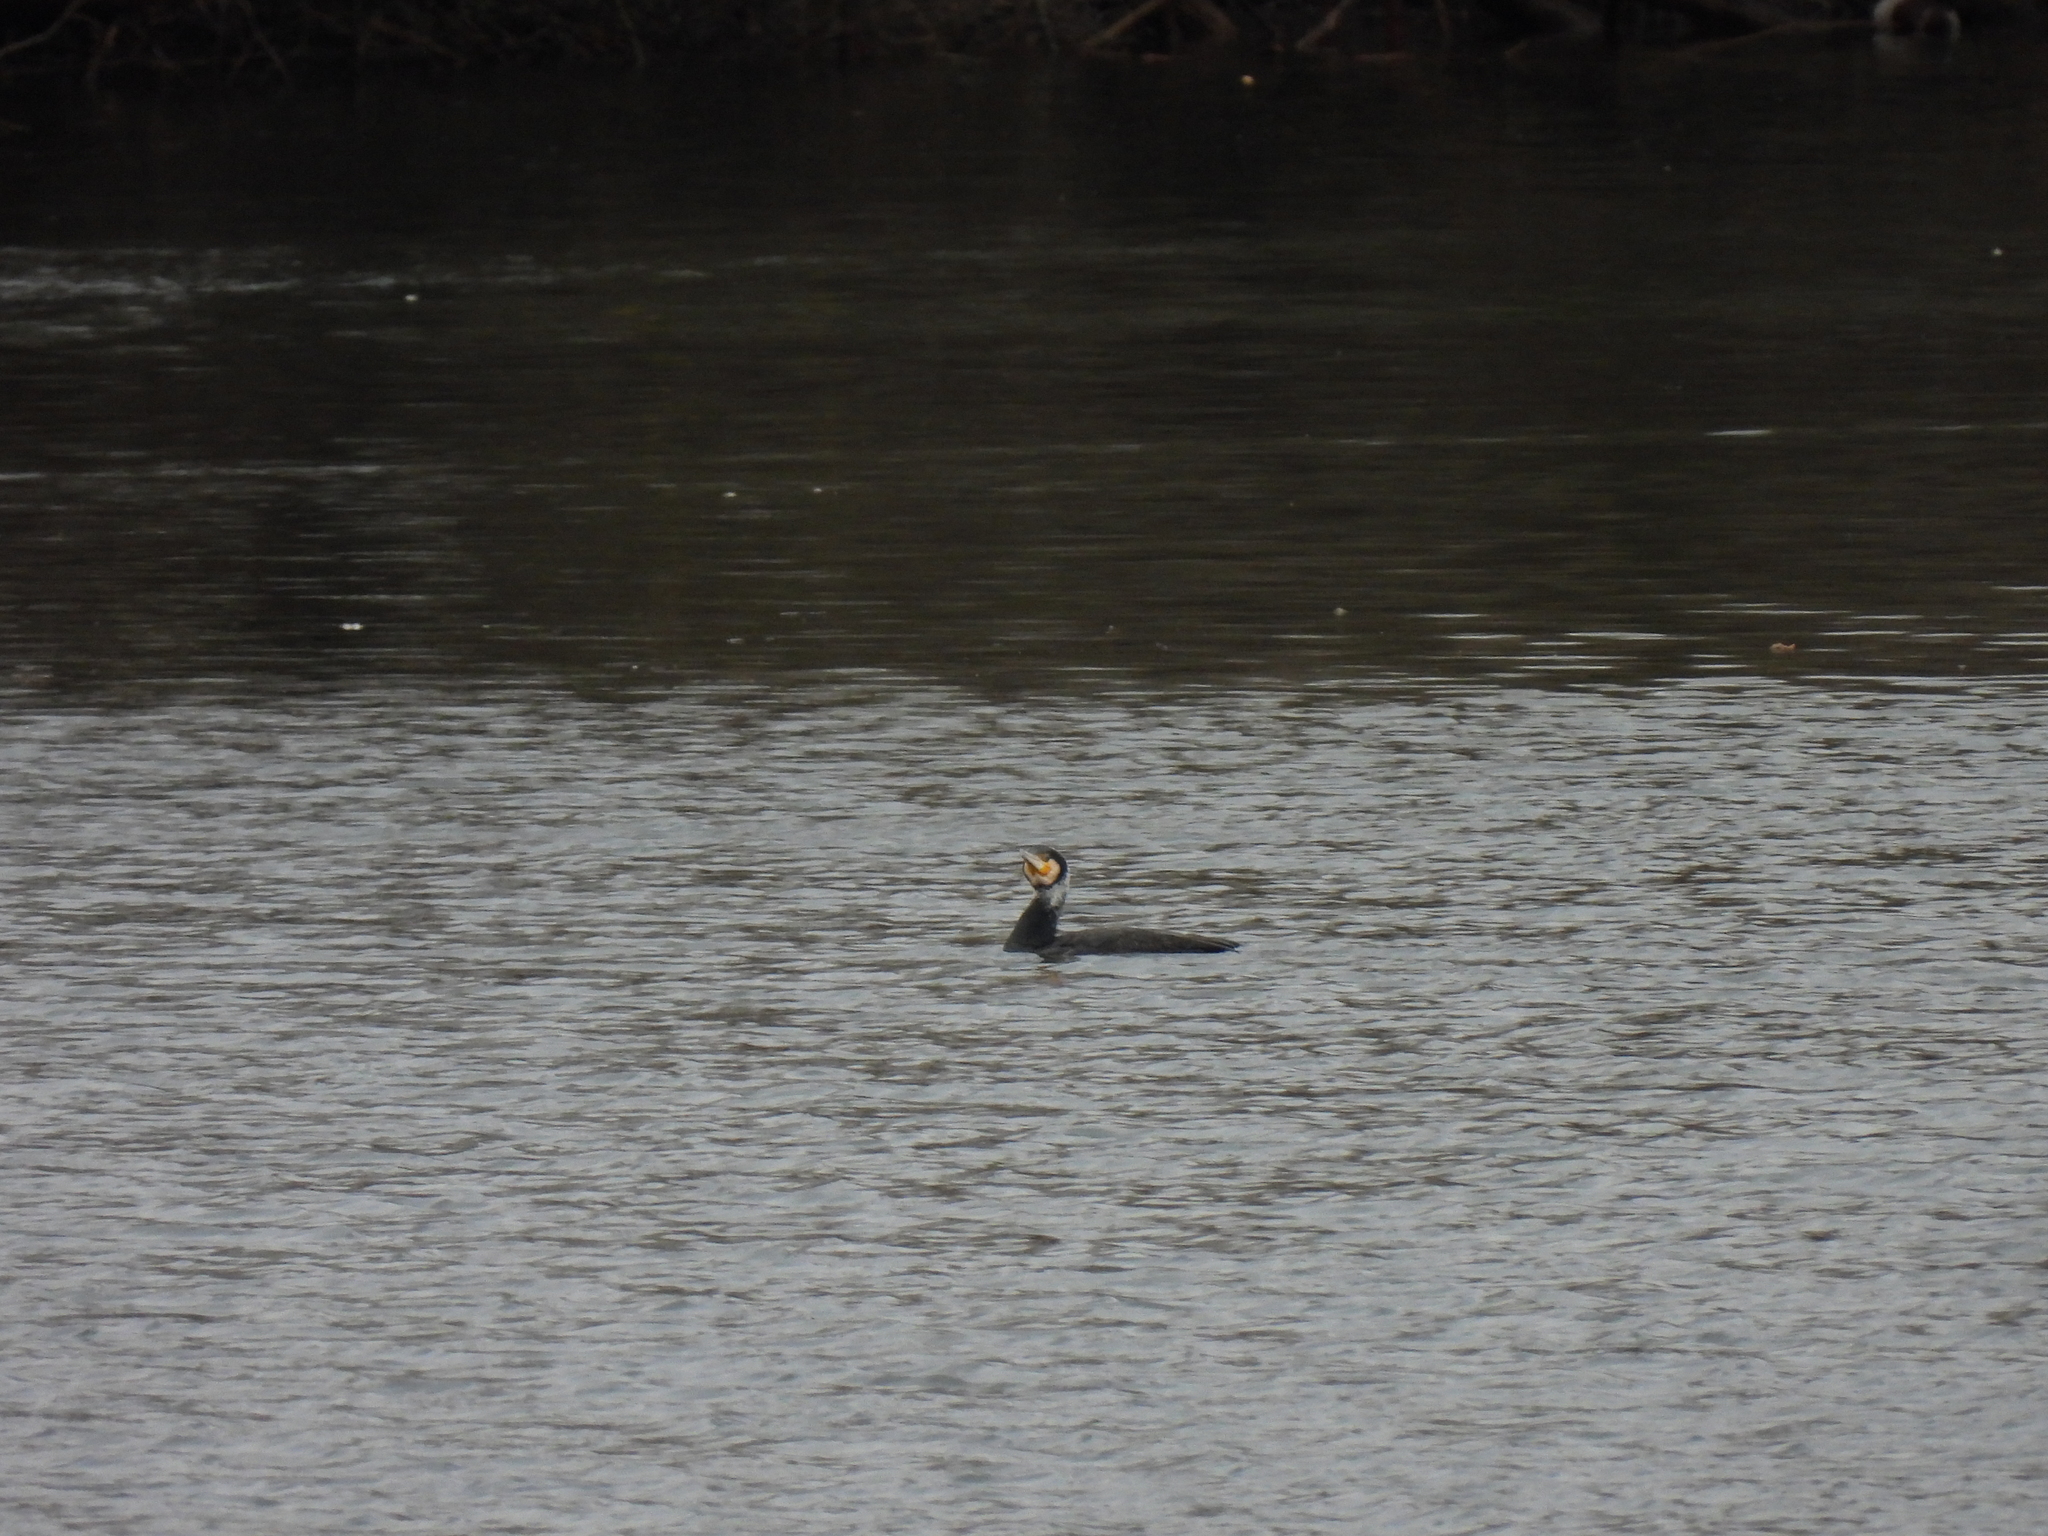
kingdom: Animalia
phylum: Chordata
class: Aves
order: Suliformes
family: Phalacrocoracidae
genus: Phalacrocorax
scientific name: Phalacrocorax carbo
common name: Great cormorant
